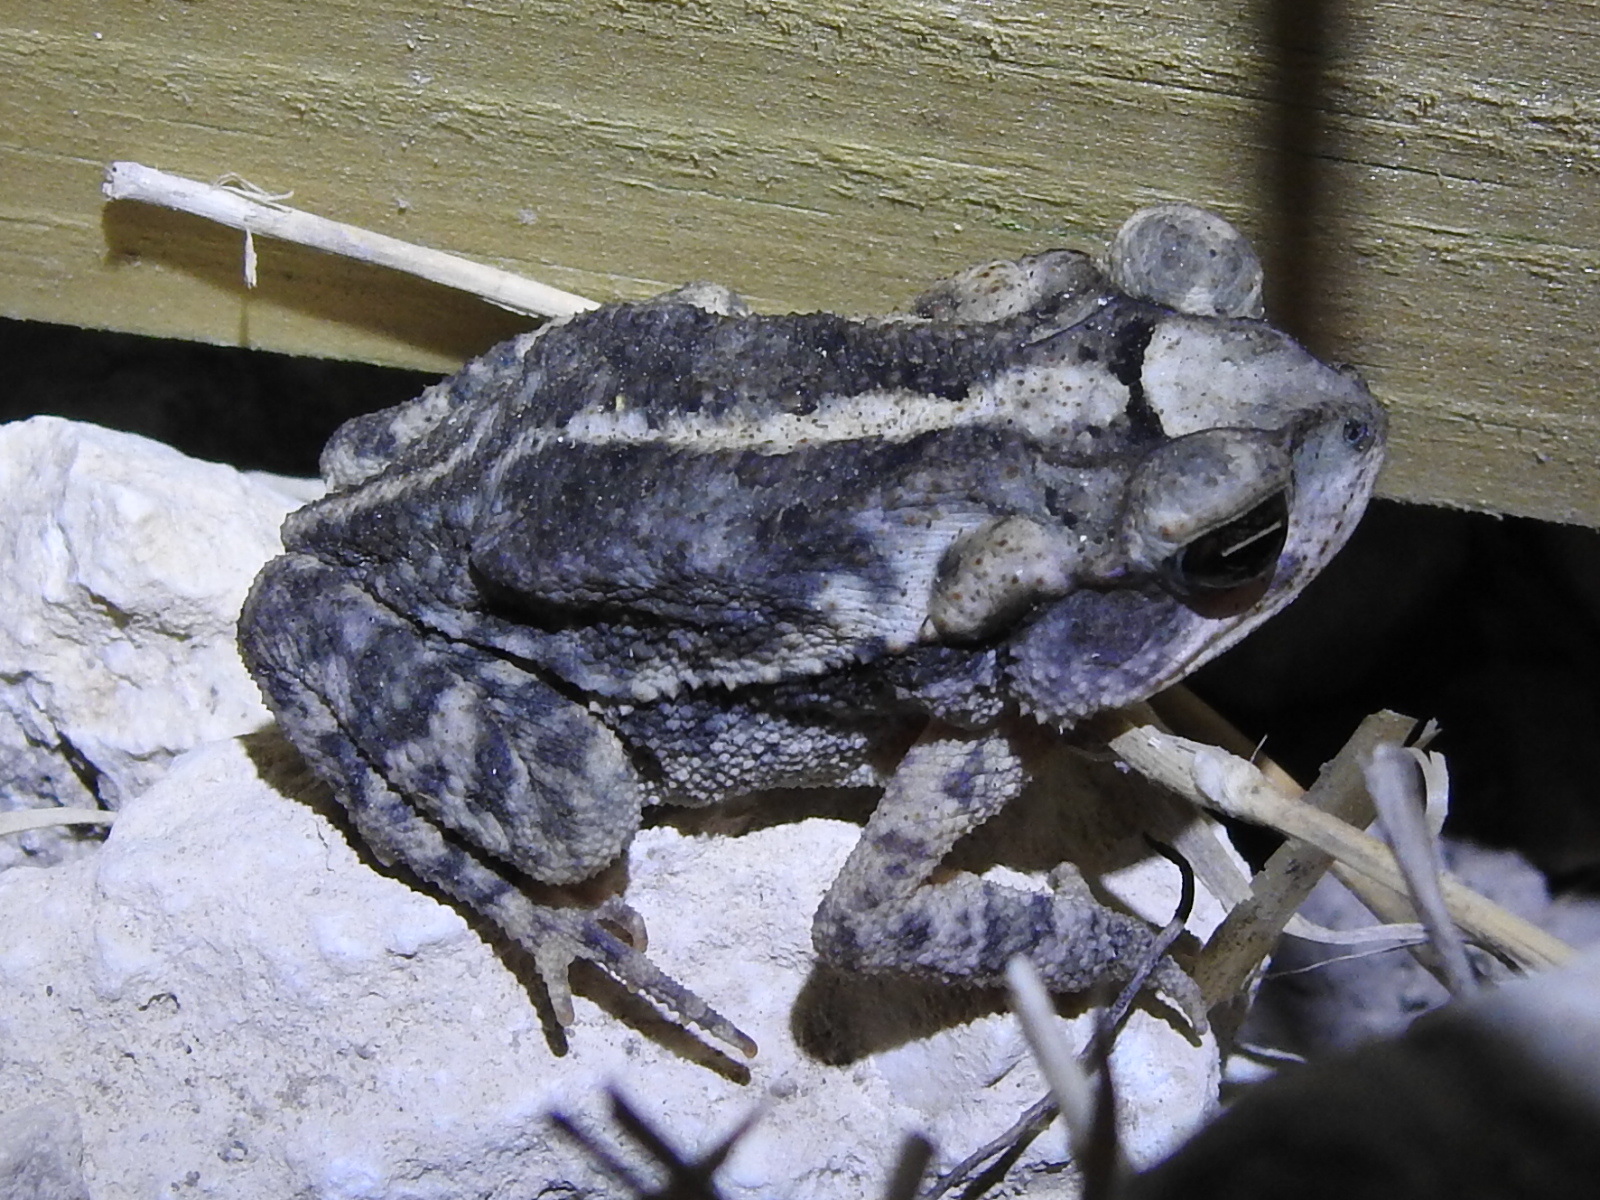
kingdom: Animalia
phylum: Chordata
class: Amphibia
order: Anura
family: Bufonidae
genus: Incilius
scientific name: Incilius nebulifer
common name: Gulf coast toad
